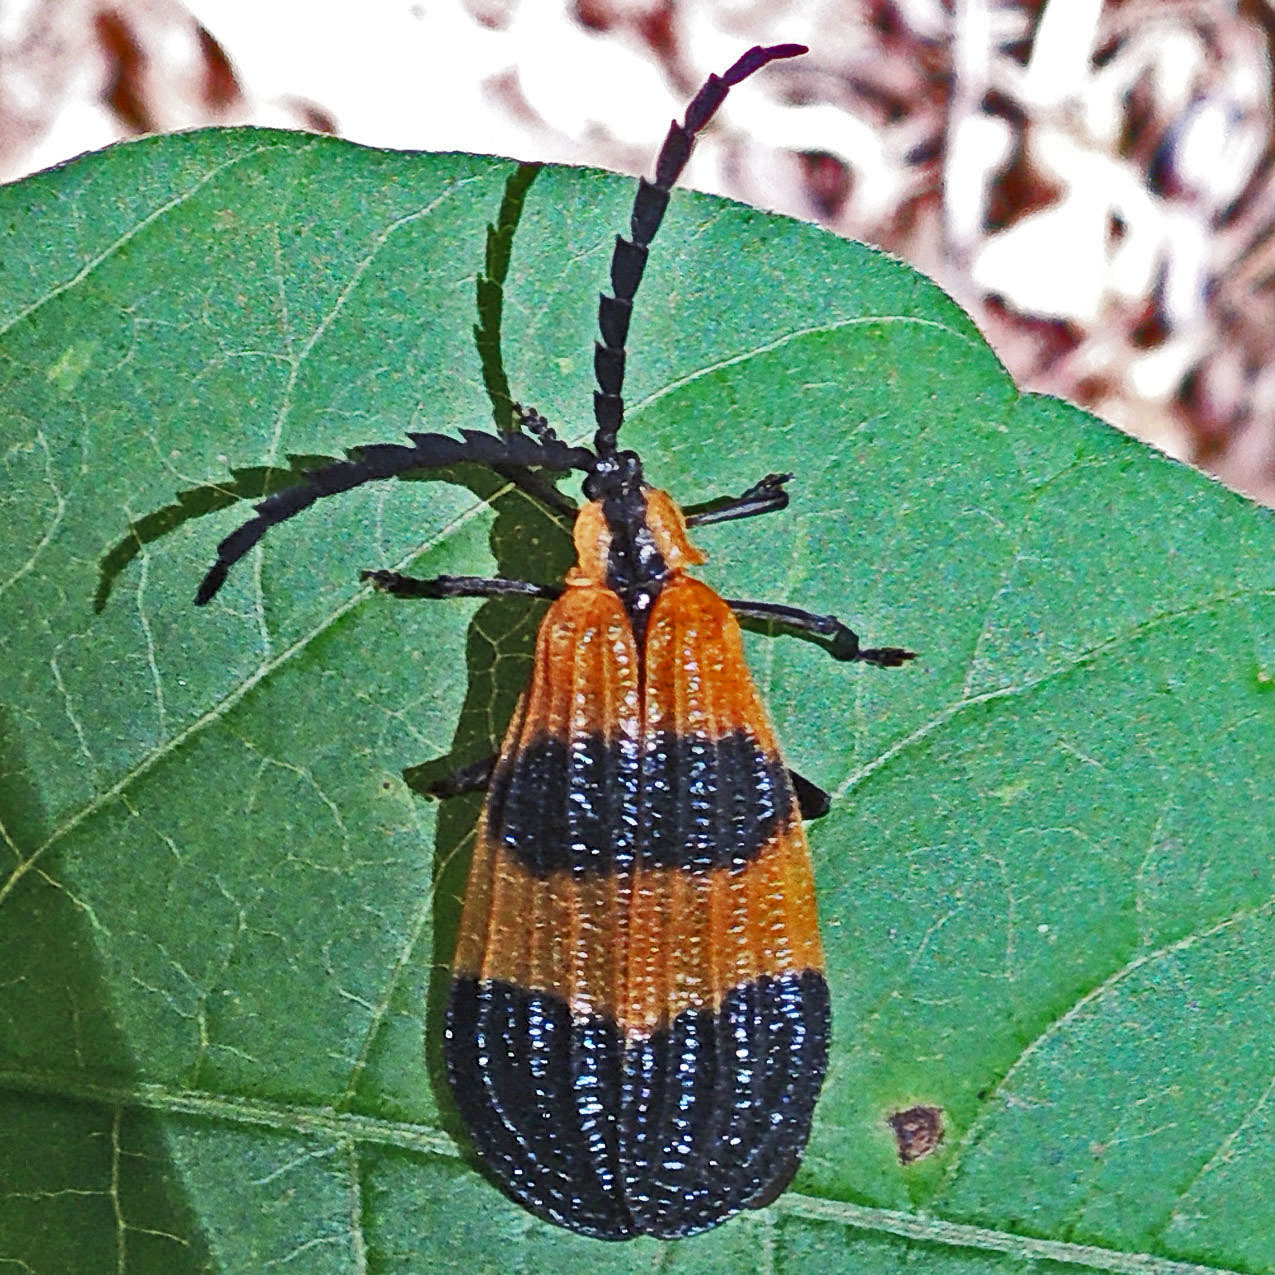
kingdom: Animalia
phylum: Arthropoda
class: Insecta
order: Coleoptera
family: Lycidae
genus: Calopteron
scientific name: Calopteron terminale
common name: End band net-winged beetle
